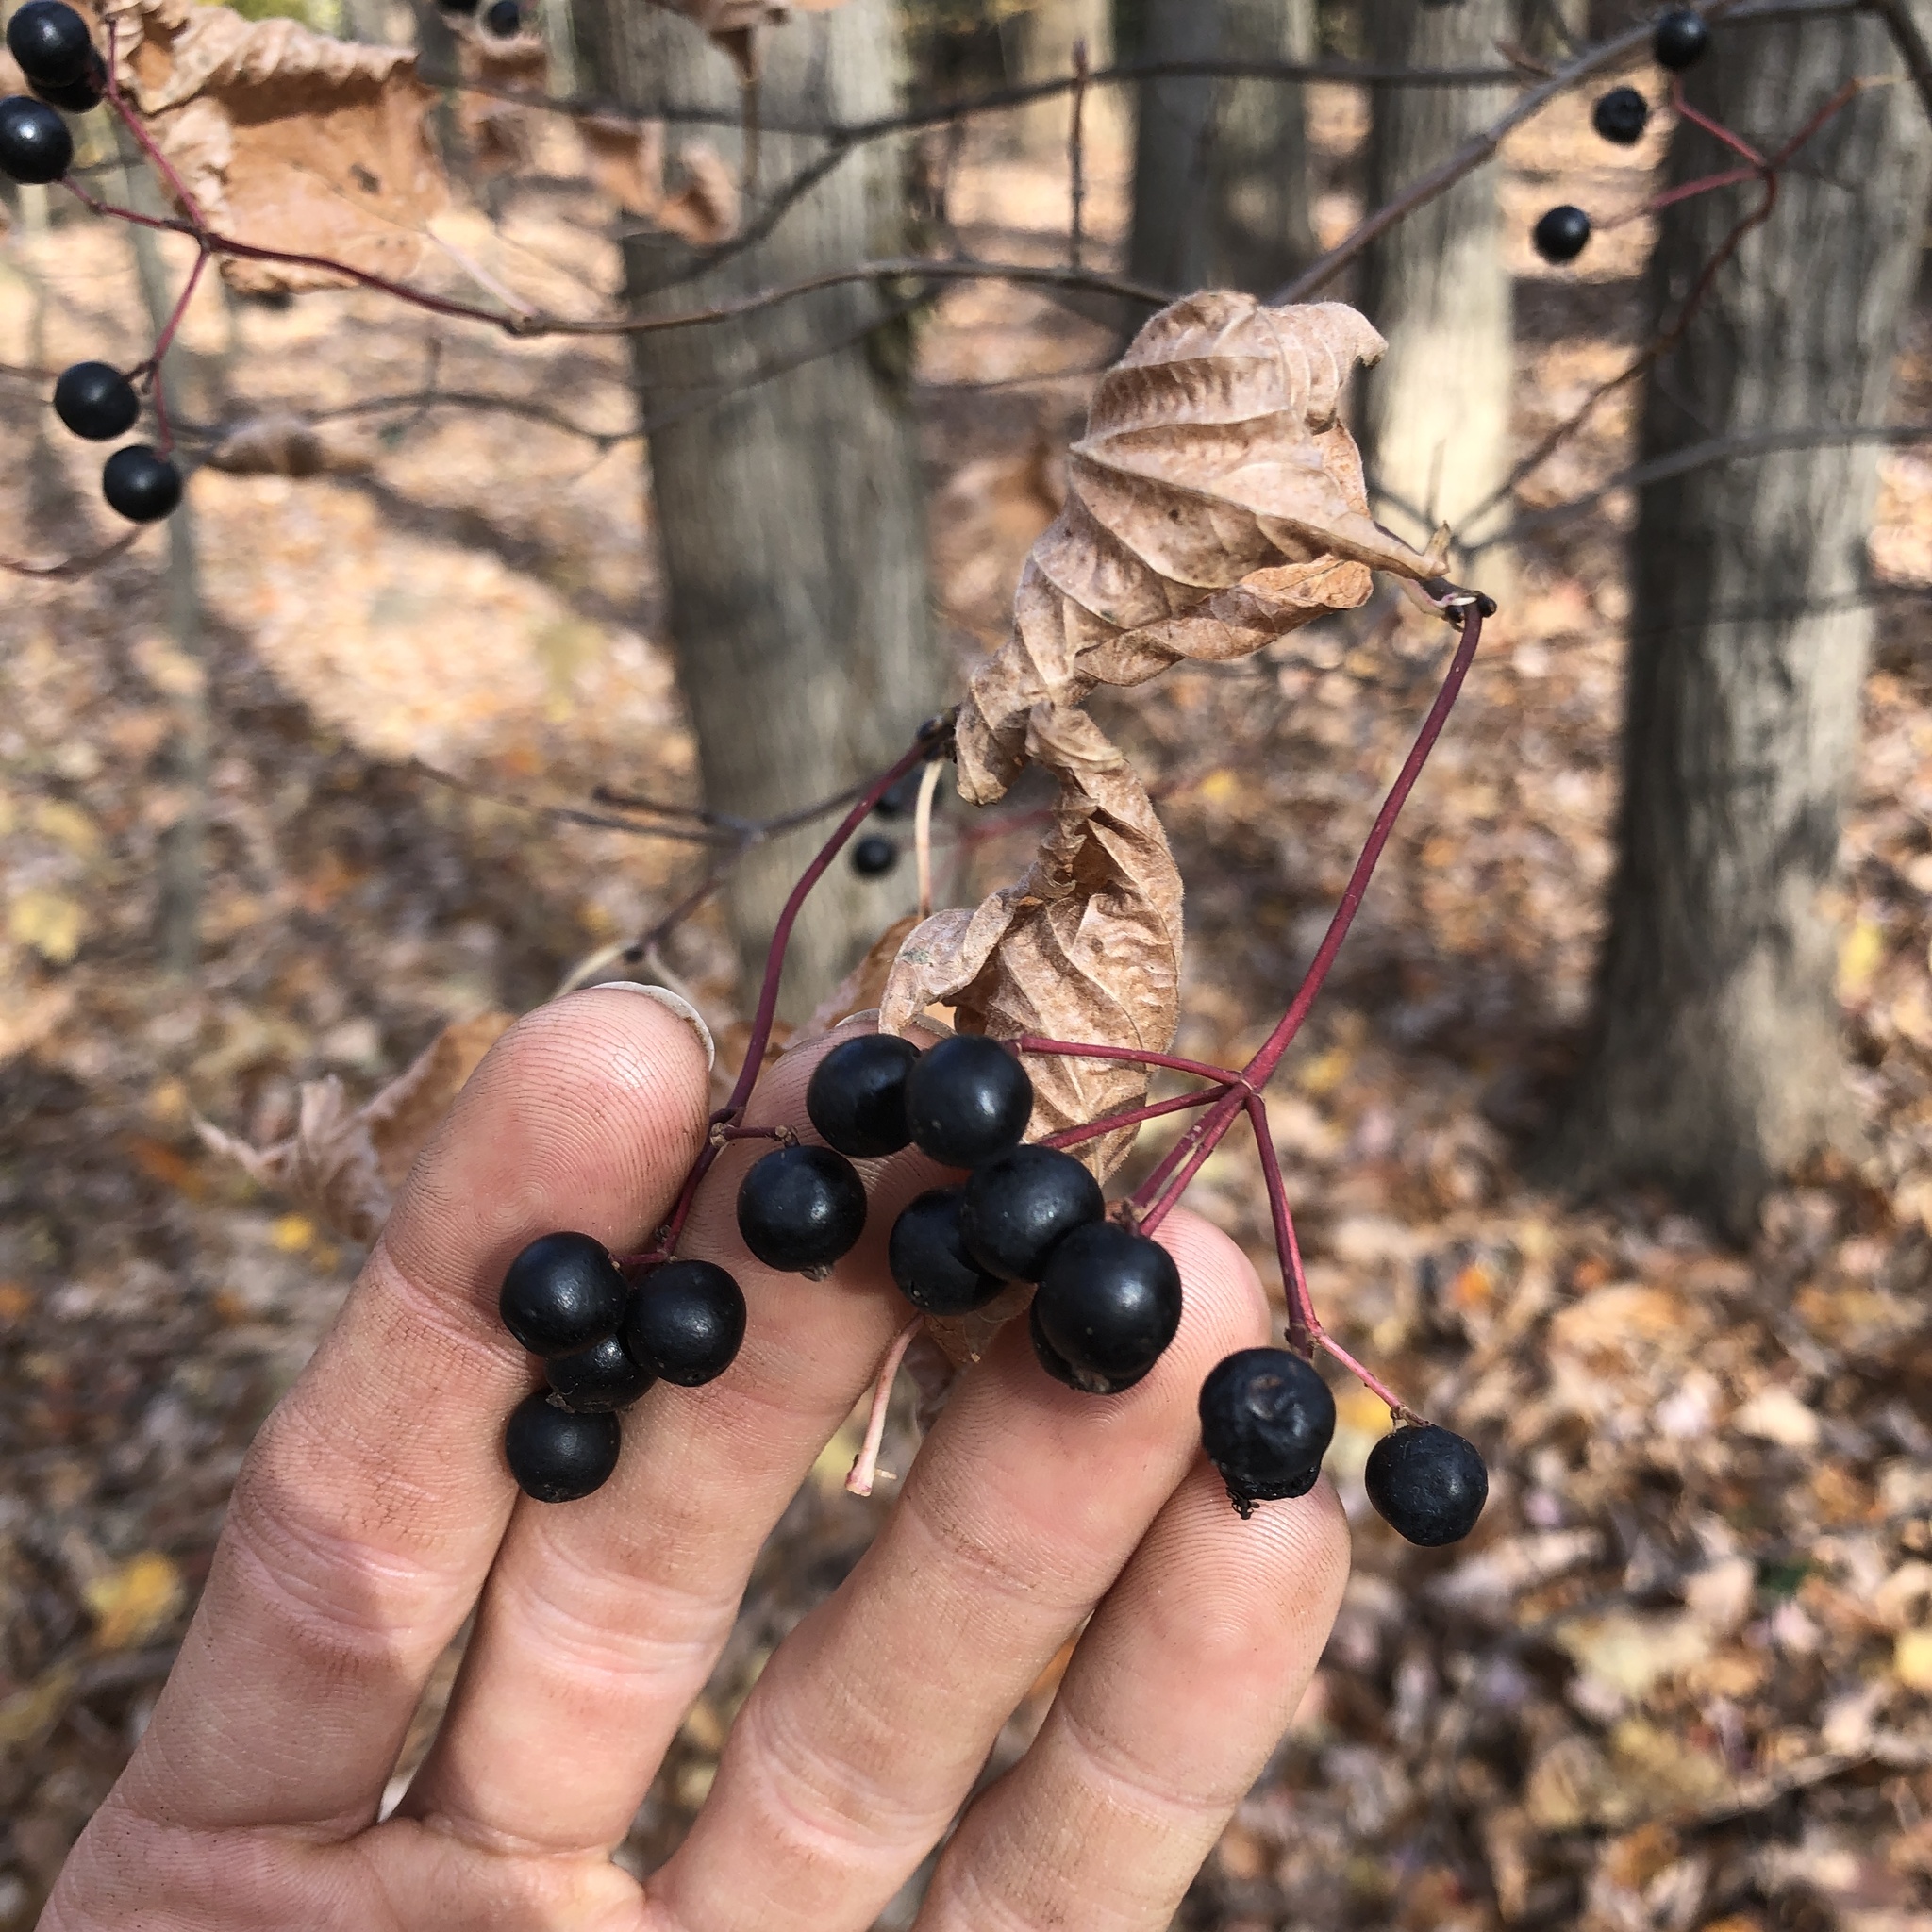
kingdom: Plantae
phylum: Tracheophyta
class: Magnoliopsida
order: Dipsacales
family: Viburnaceae
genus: Viburnum
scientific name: Viburnum acerifolium
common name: Dockmackie
